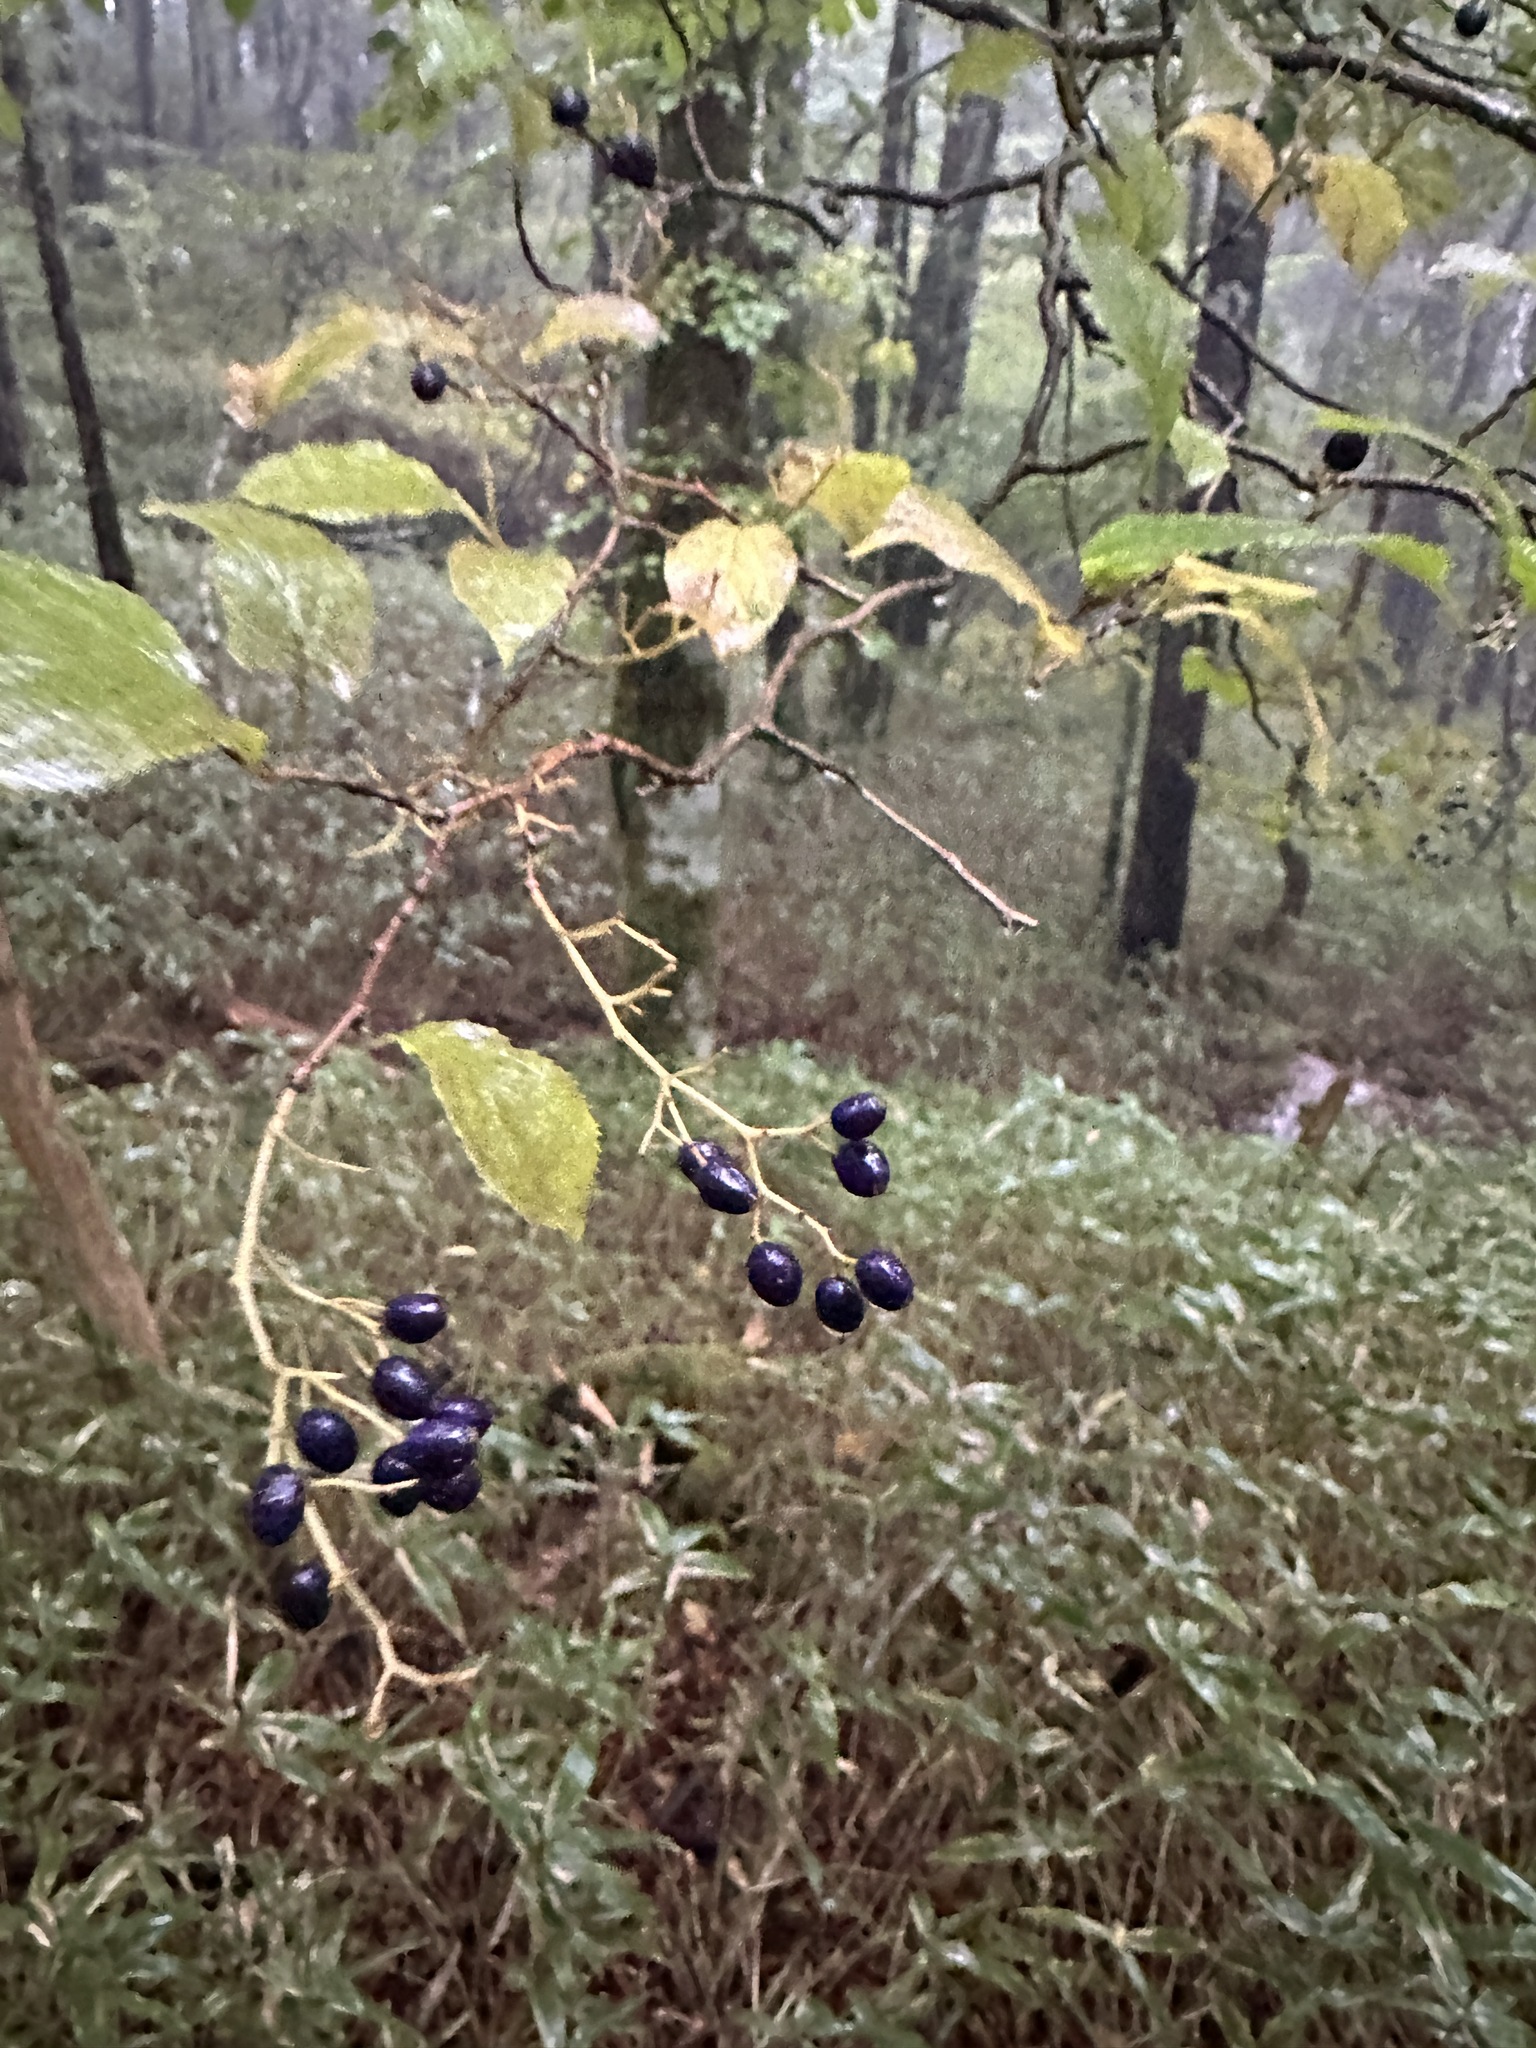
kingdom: Plantae
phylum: Tracheophyta
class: Magnoliopsida
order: Ericales
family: Symplocaceae
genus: Symplocos
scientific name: Symplocos coreana
